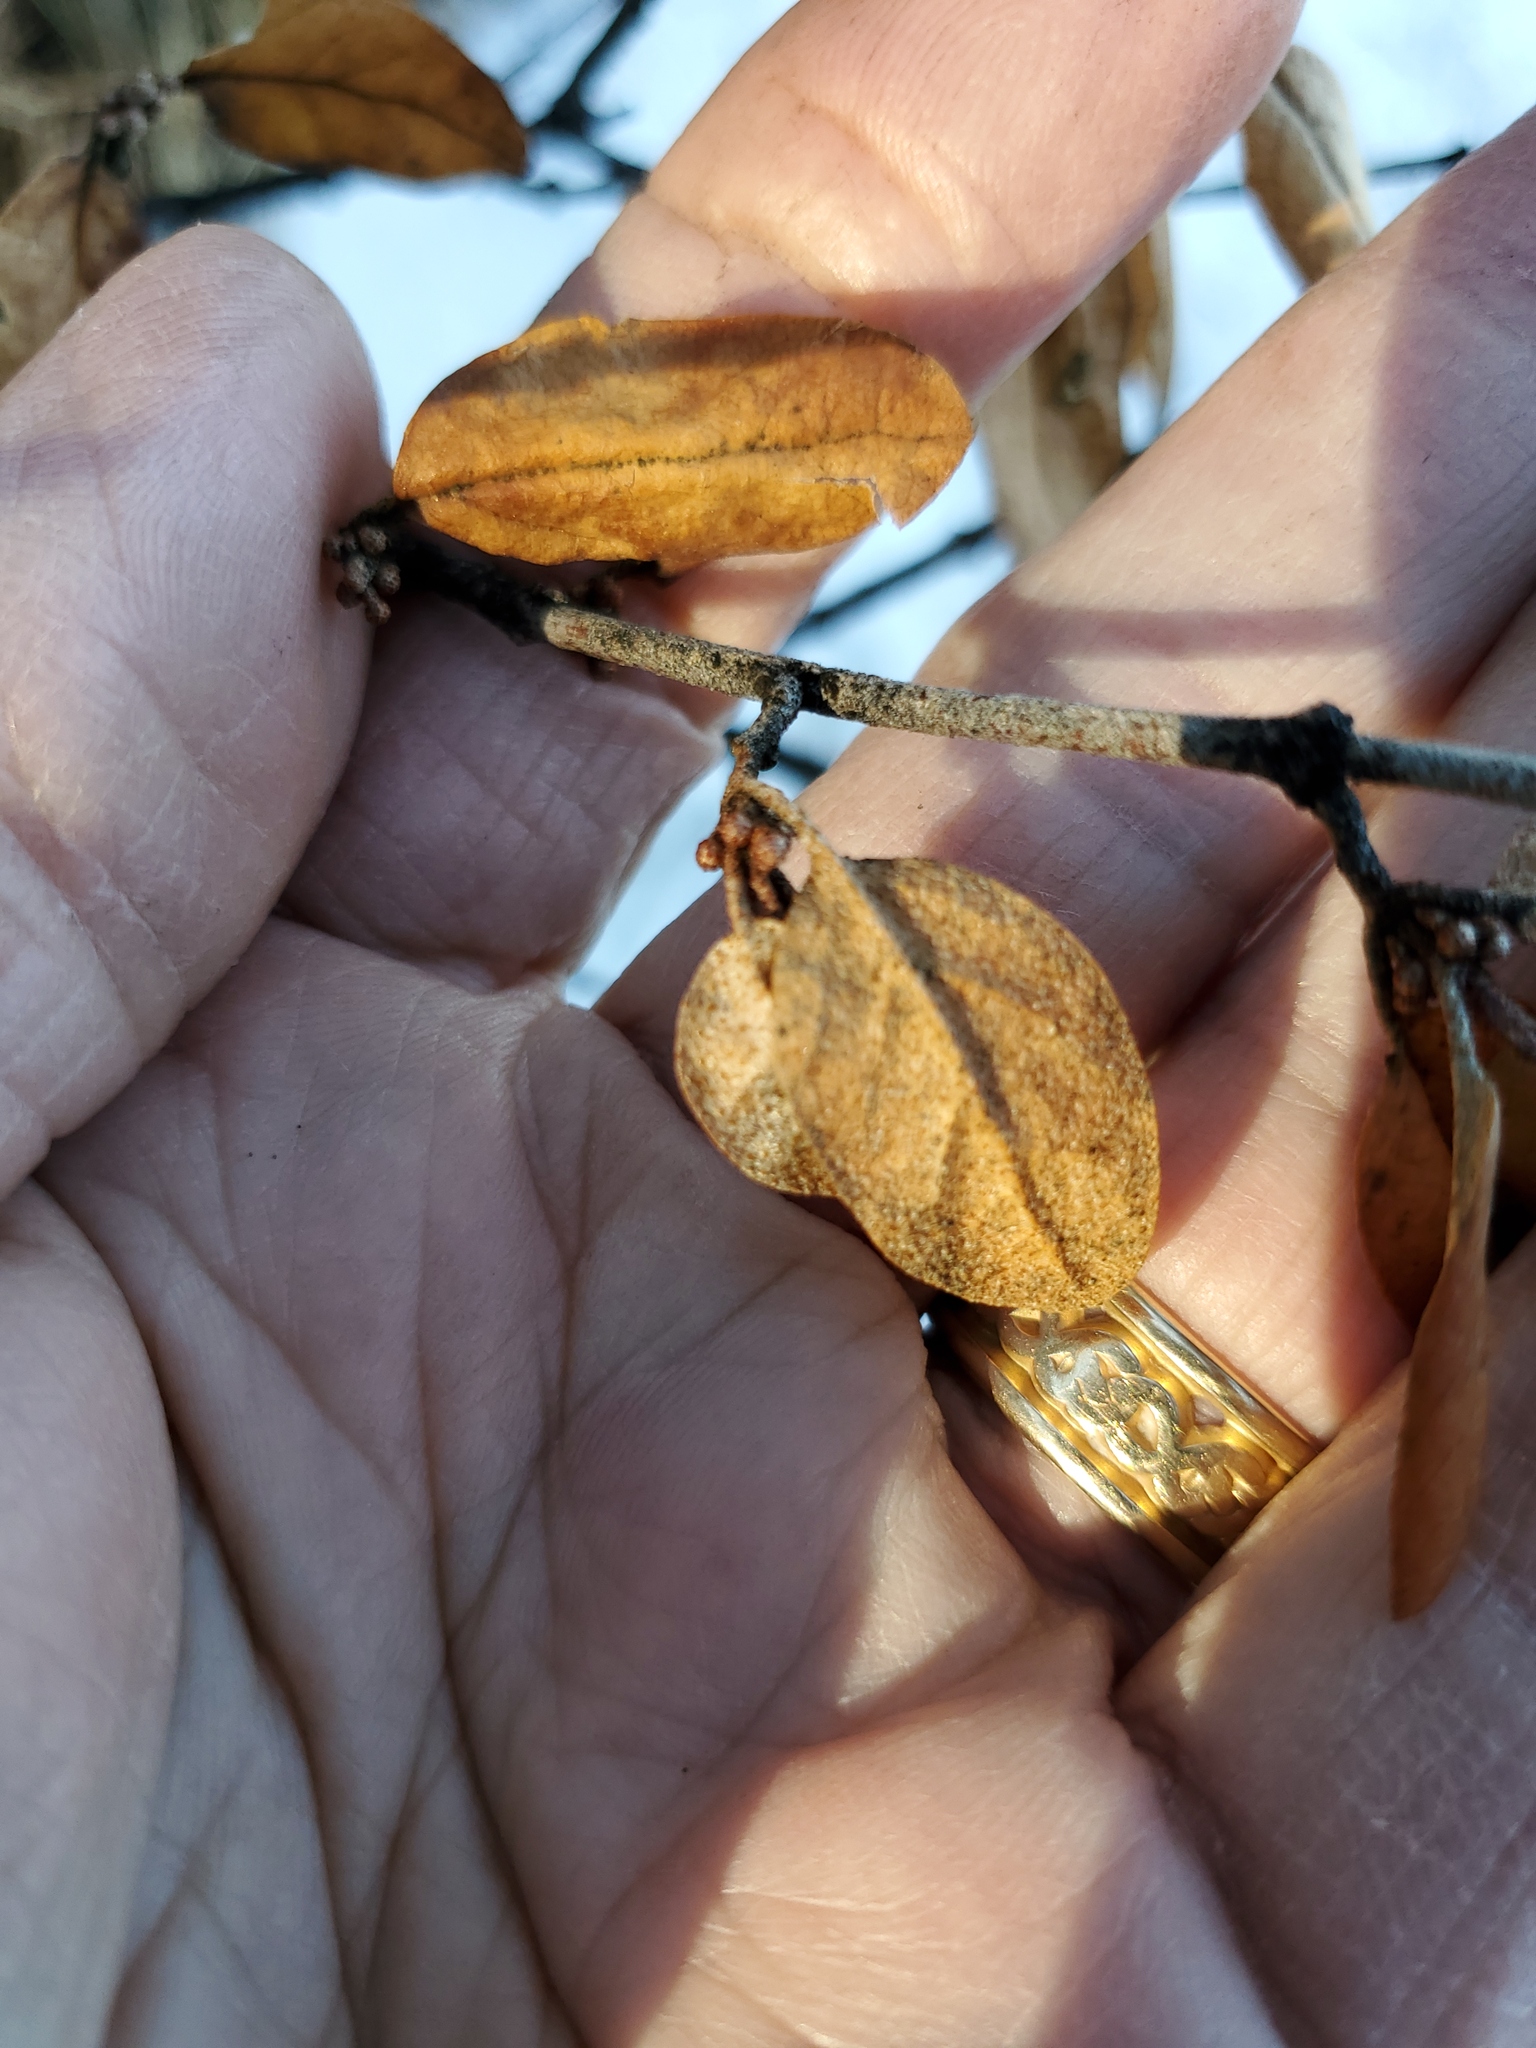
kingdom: Plantae
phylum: Tracheophyta
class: Magnoliopsida
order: Rosales
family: Elaeagnaceae
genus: Shepherdia
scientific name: Shepherdia canadensis
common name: Soapberry
